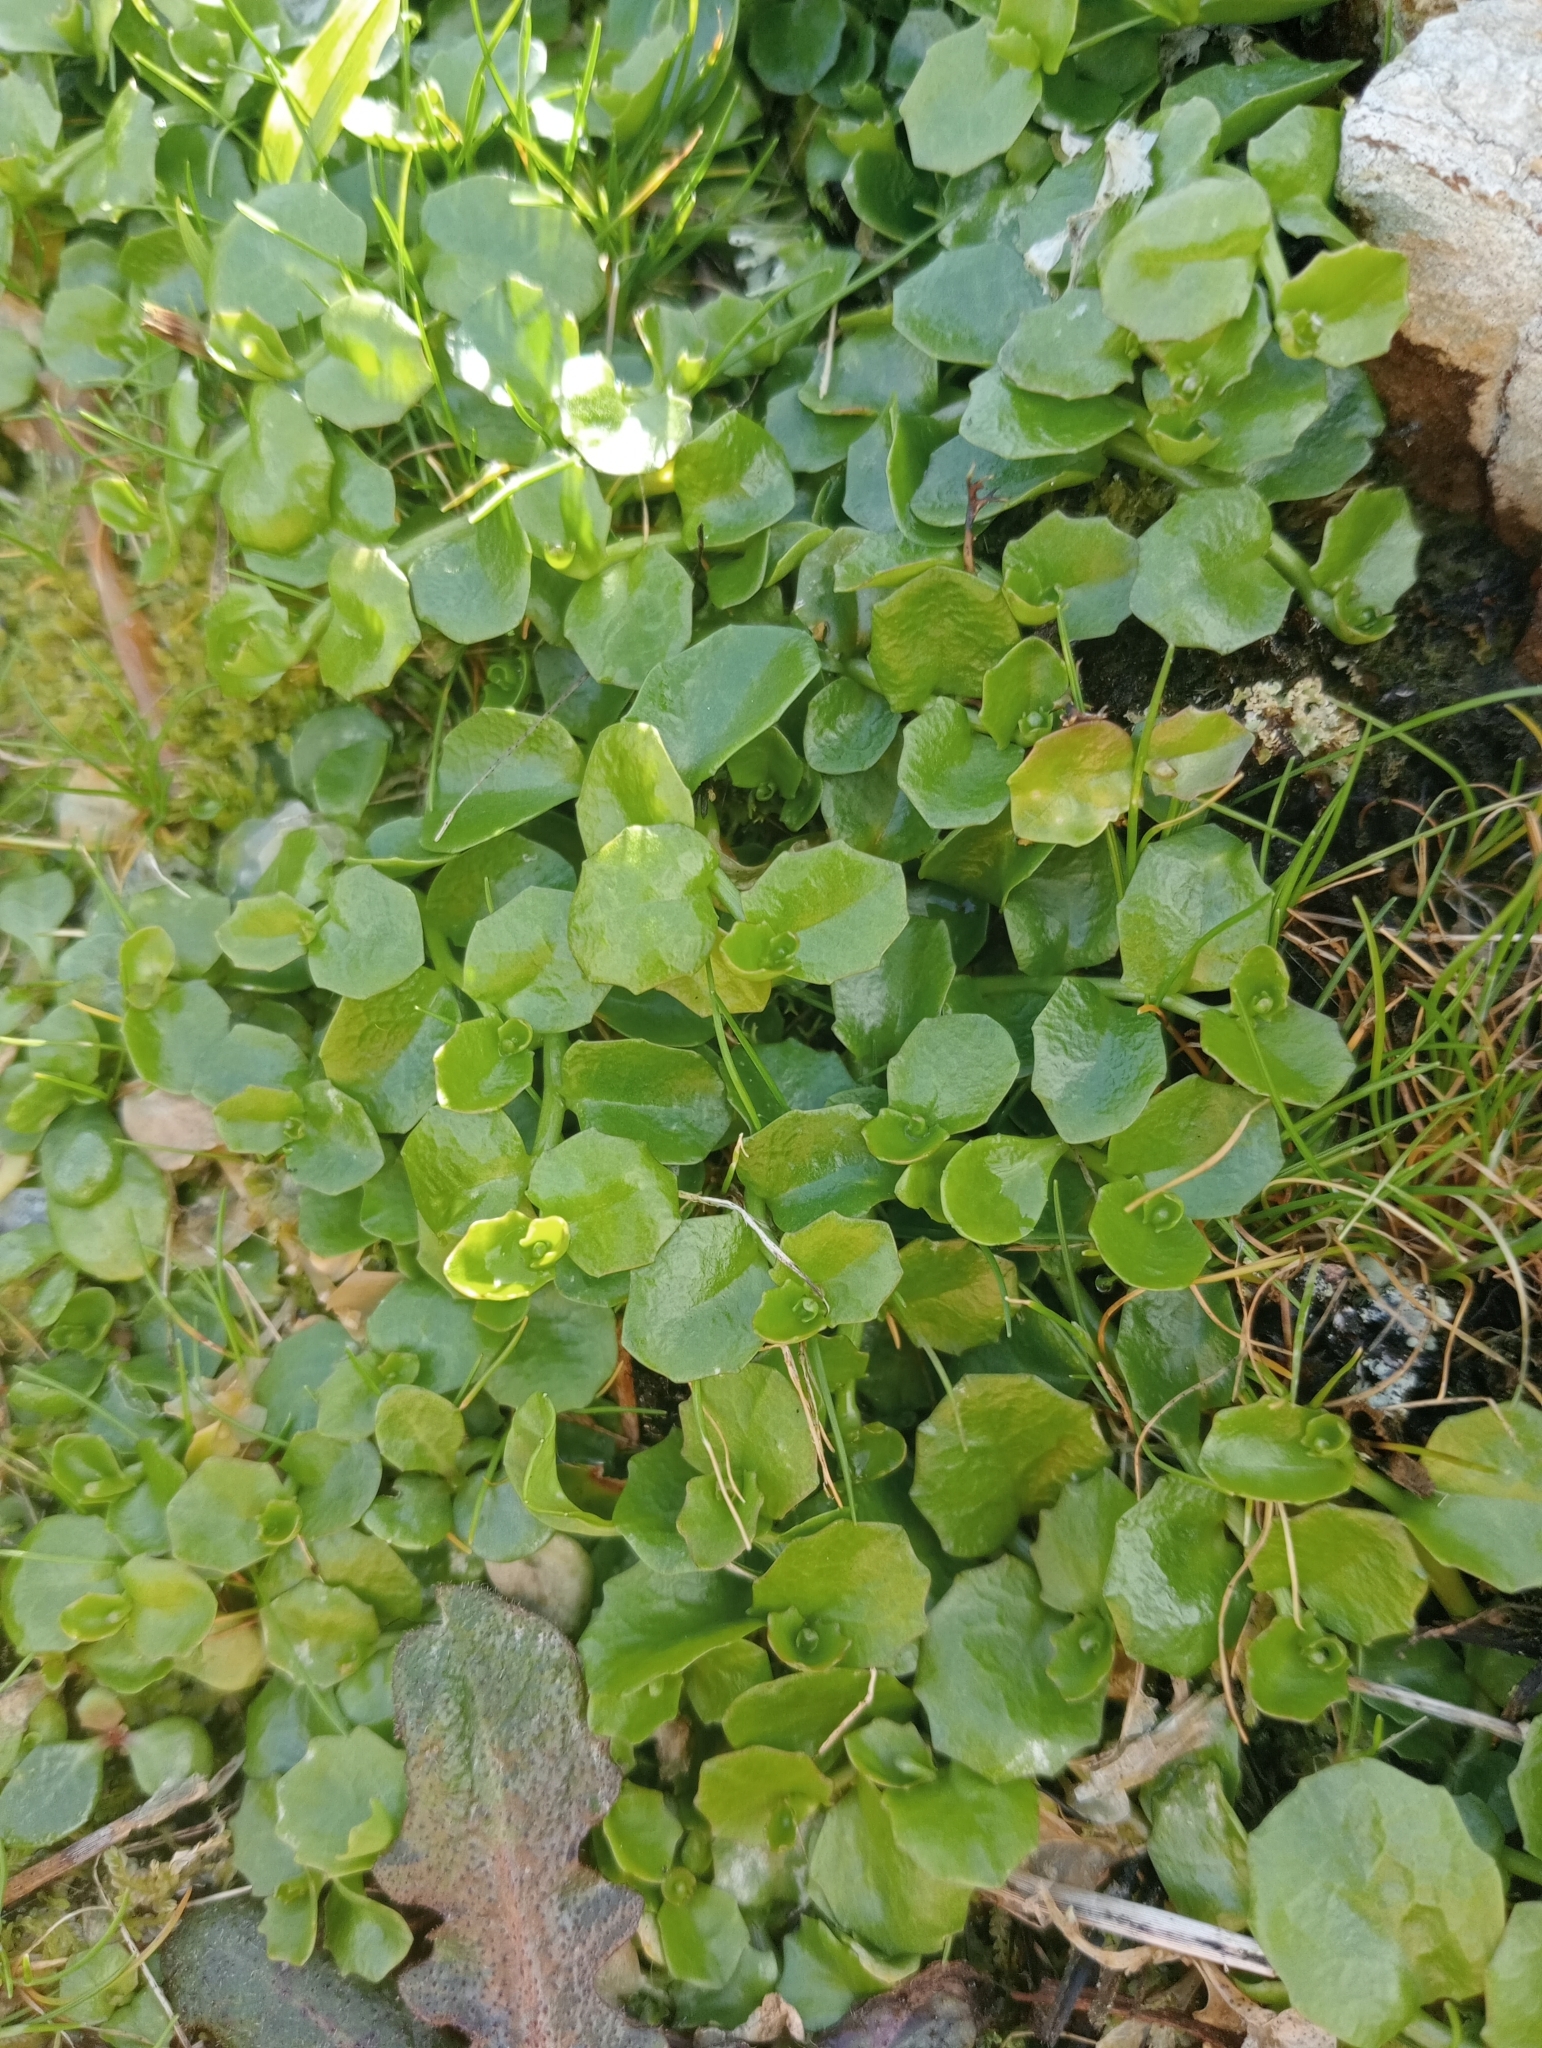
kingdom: Plantae
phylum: Tracheophyta
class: Magnoliopsida
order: Asterales
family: Campanulaceae
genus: Lobelia
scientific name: Lobelia arenaria
